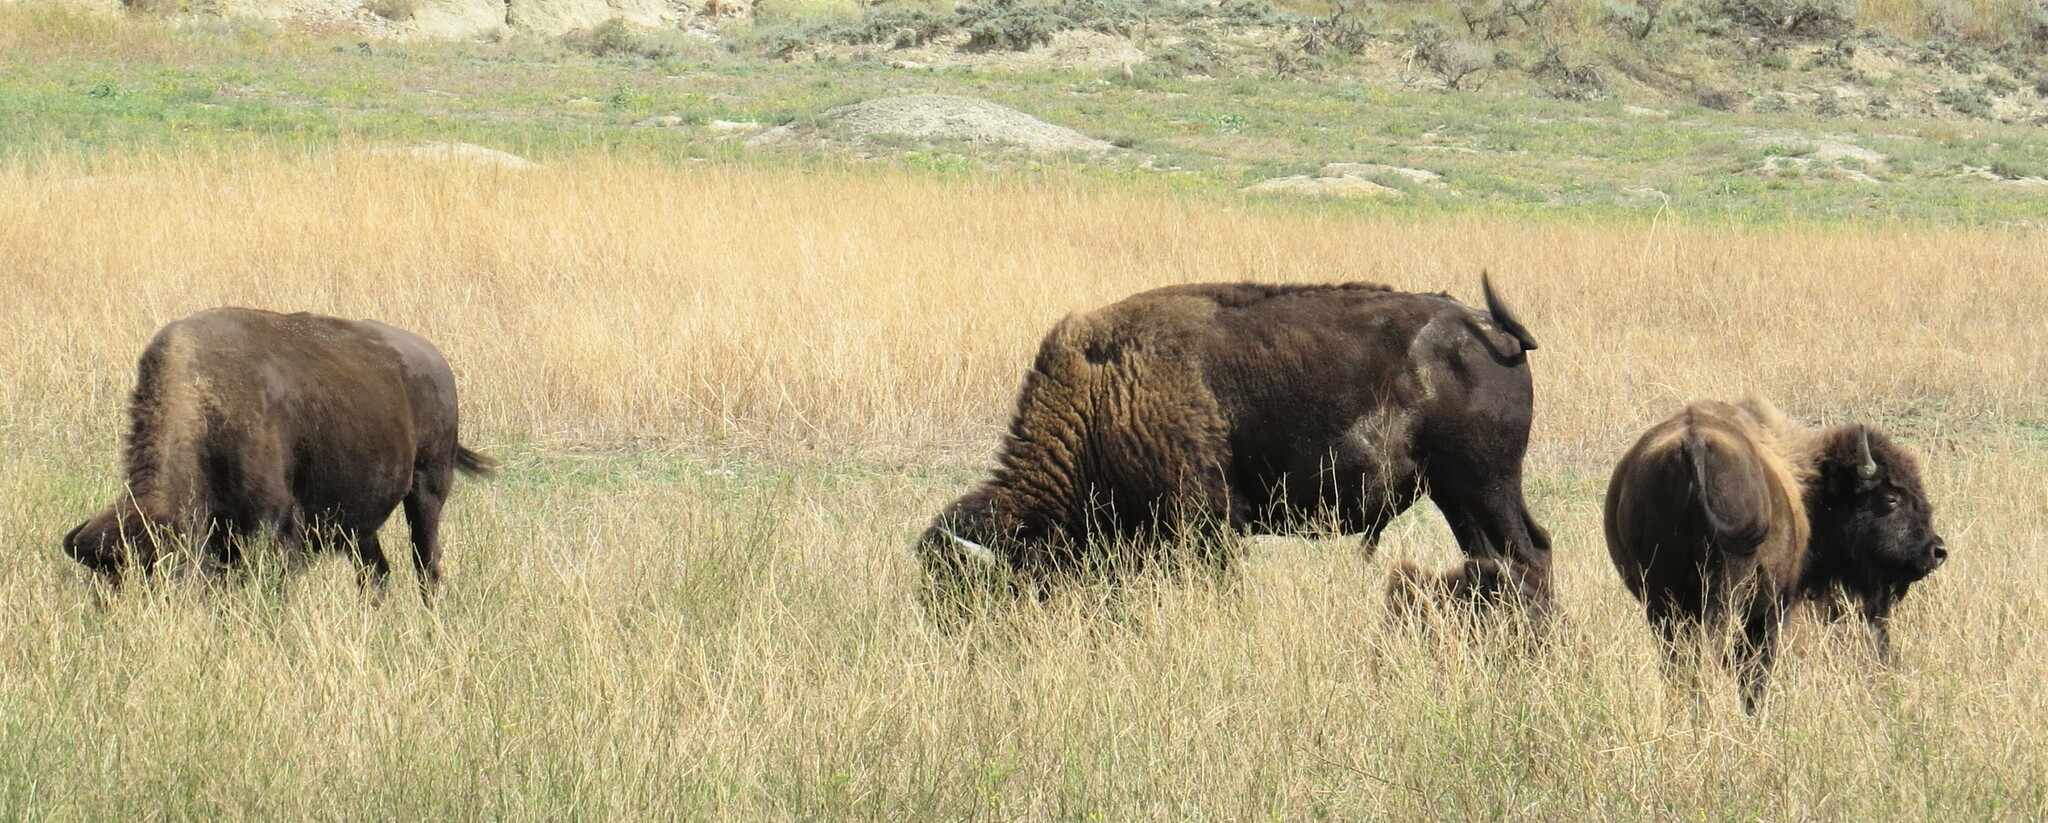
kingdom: Animalia
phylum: Chordata
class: Mammalia
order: Artiodactyla
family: Bovidae
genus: Bison
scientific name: Bison bison
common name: American bison
